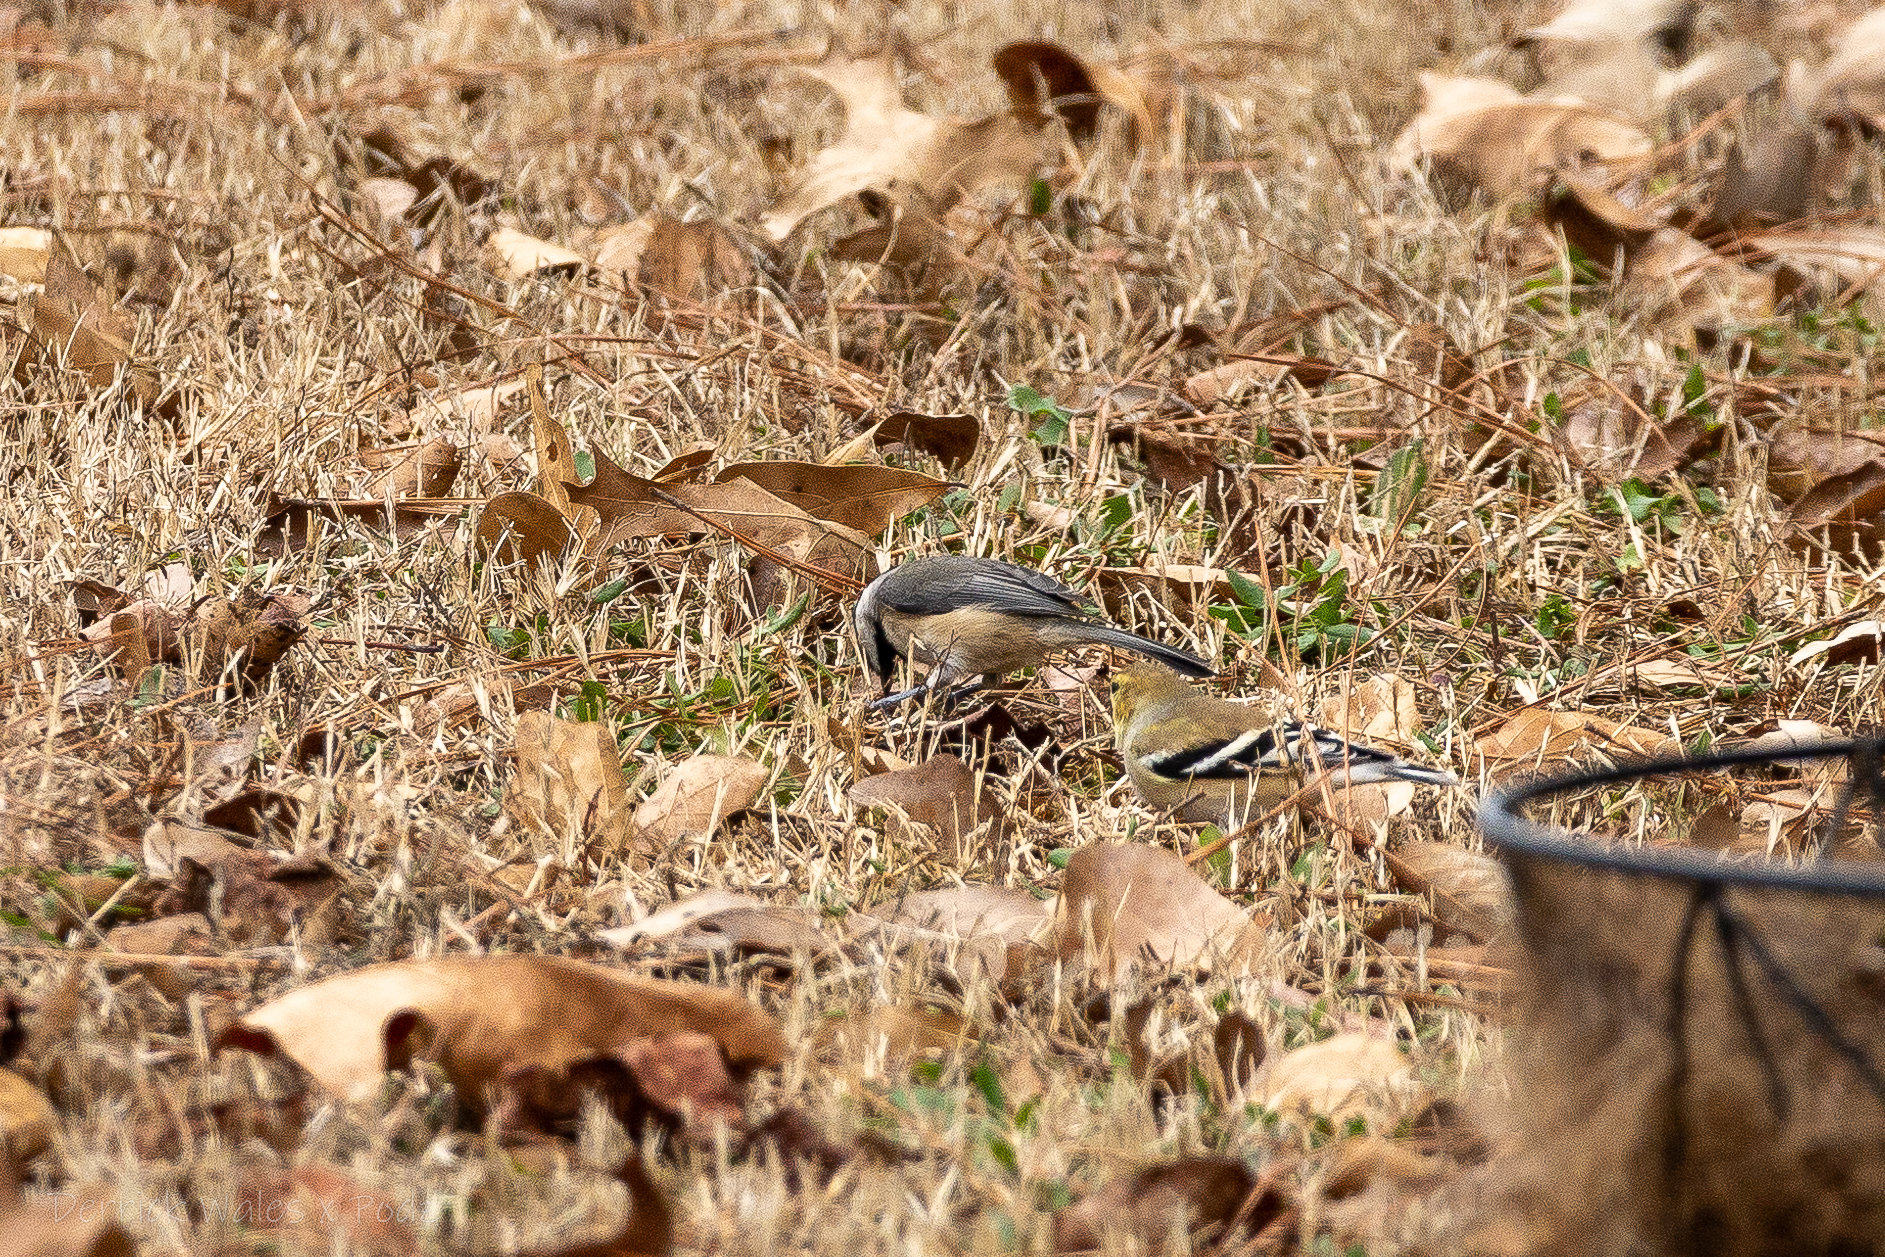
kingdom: Animalia
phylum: Chordata
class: Aves
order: Passeriformes
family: Paridae
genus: Poecile
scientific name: Poecile carolinensis
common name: Carolina chickadee
